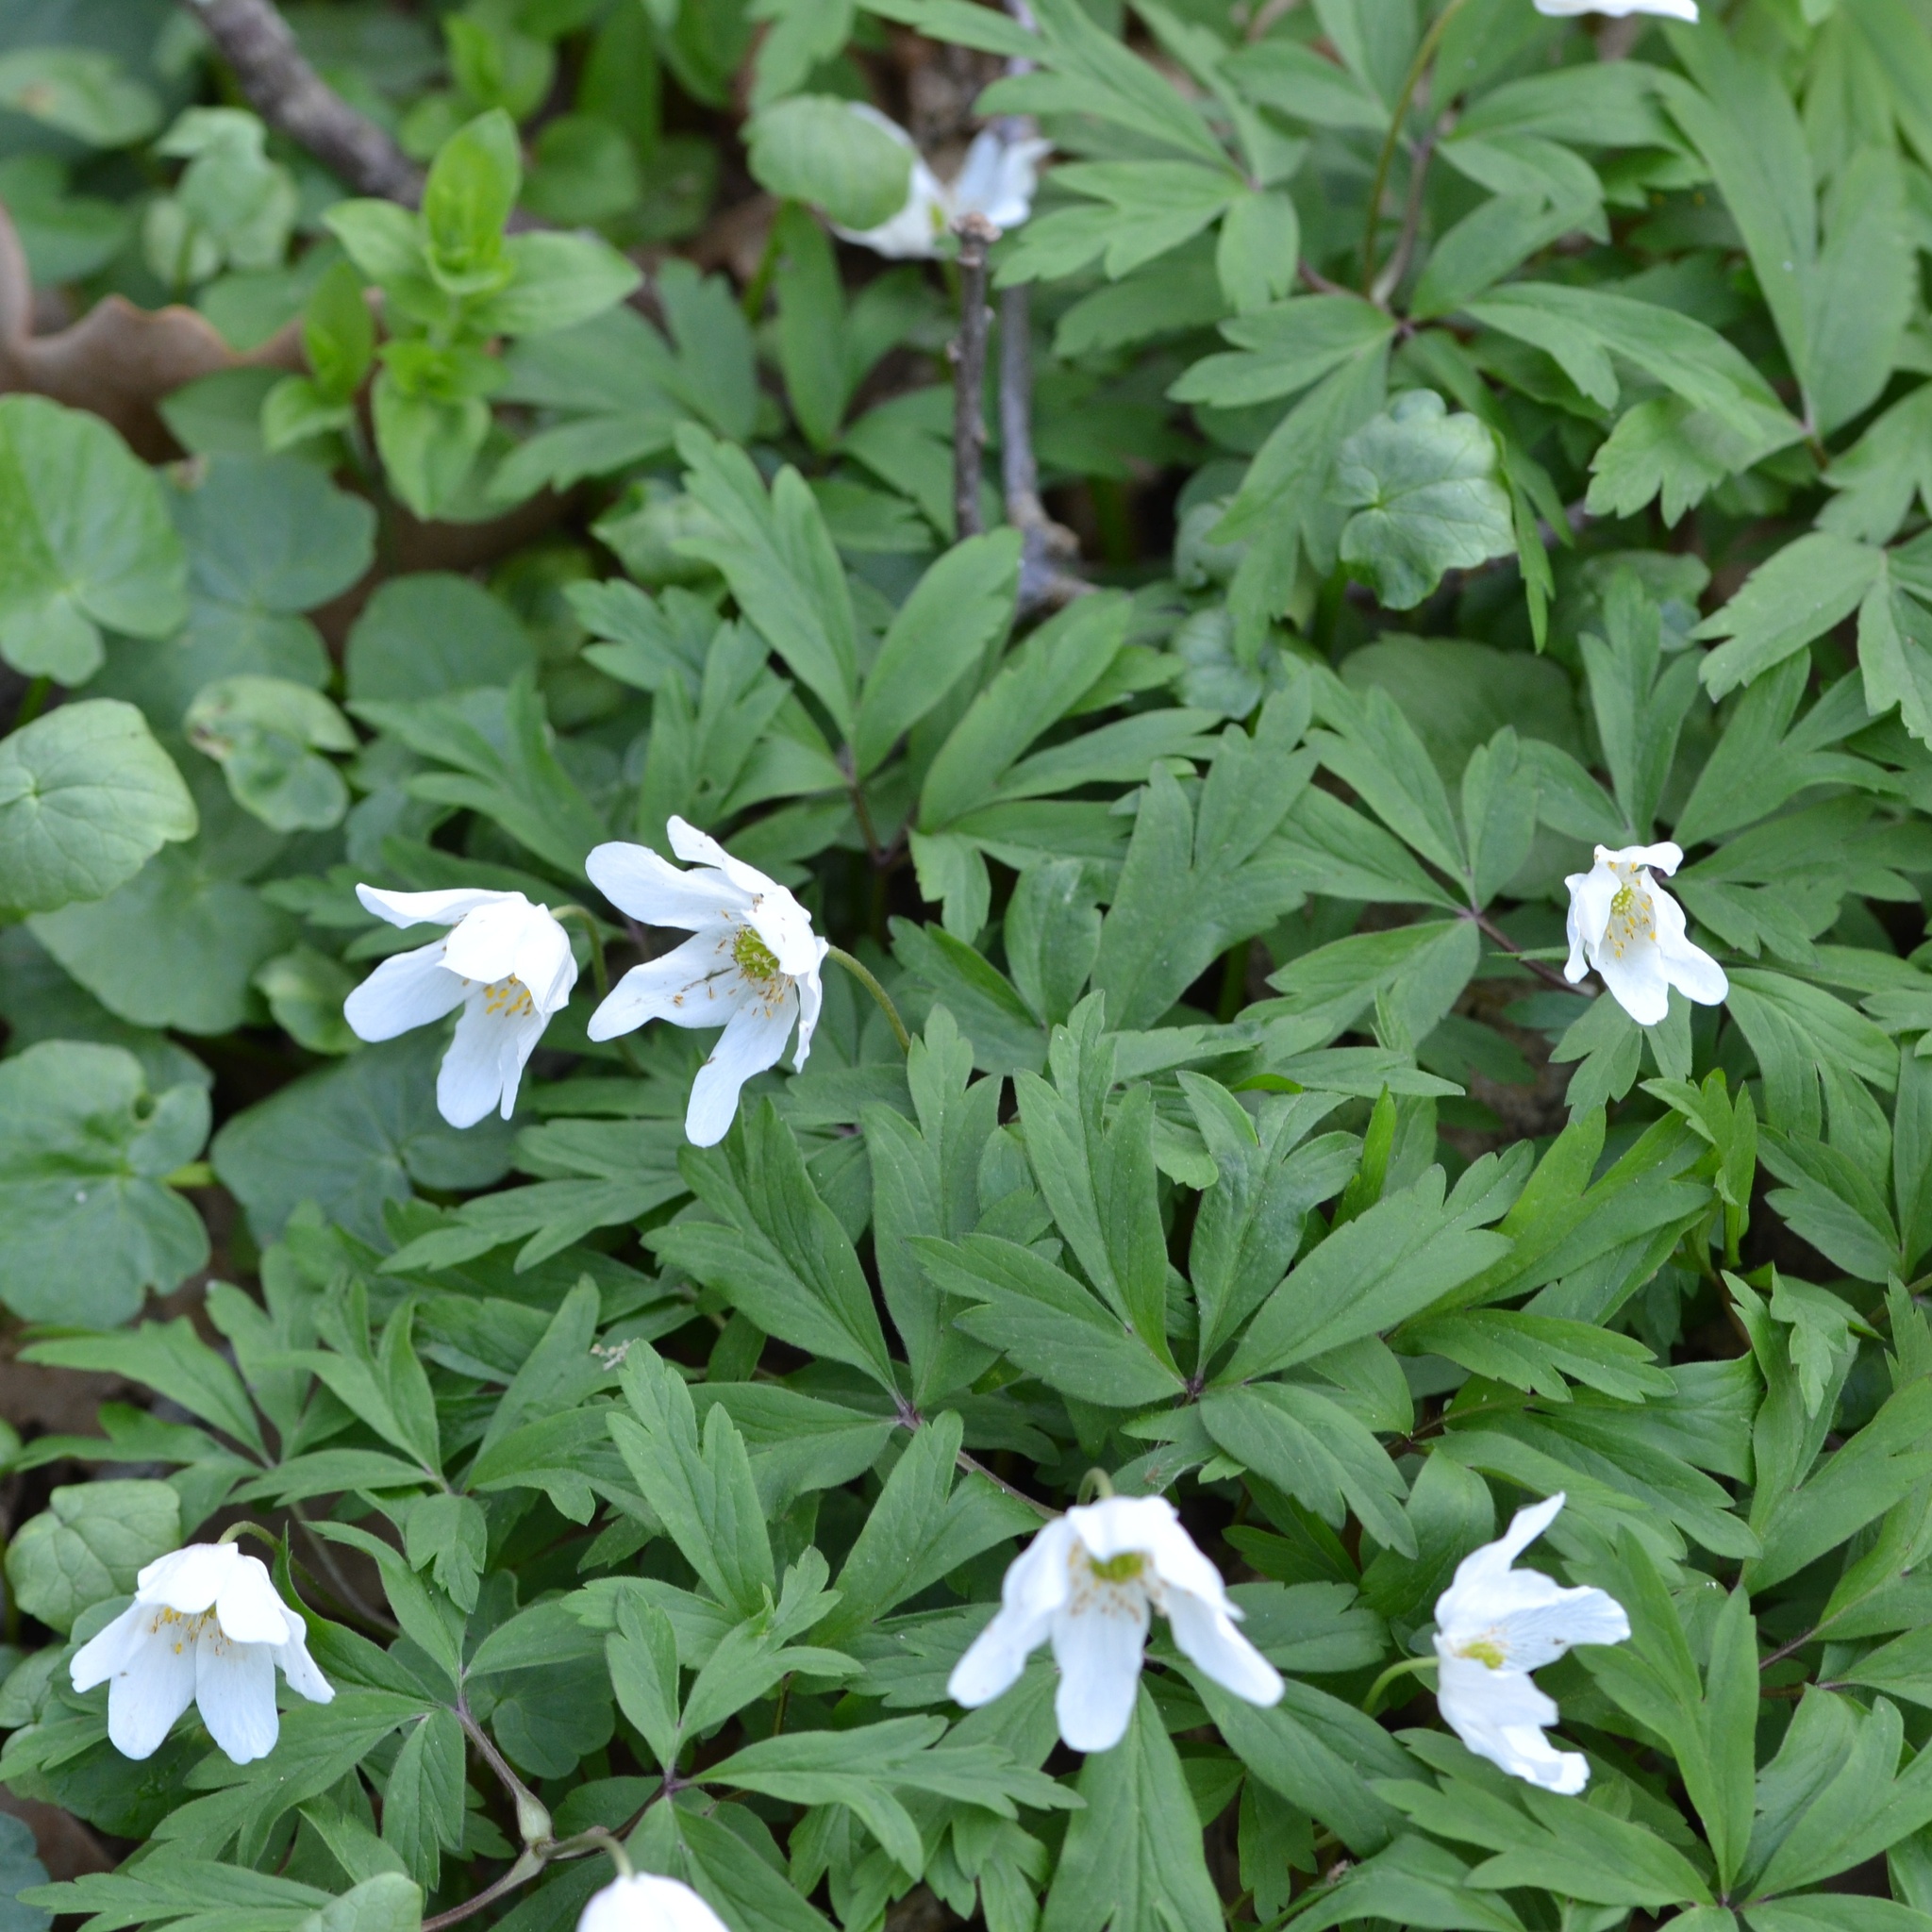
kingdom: Plantae
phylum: Tracheophyta
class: Magnoliopsida
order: Ranunculales
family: Ranunculaceae
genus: Anemone
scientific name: Anemone nemorosa
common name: Wood anemone
